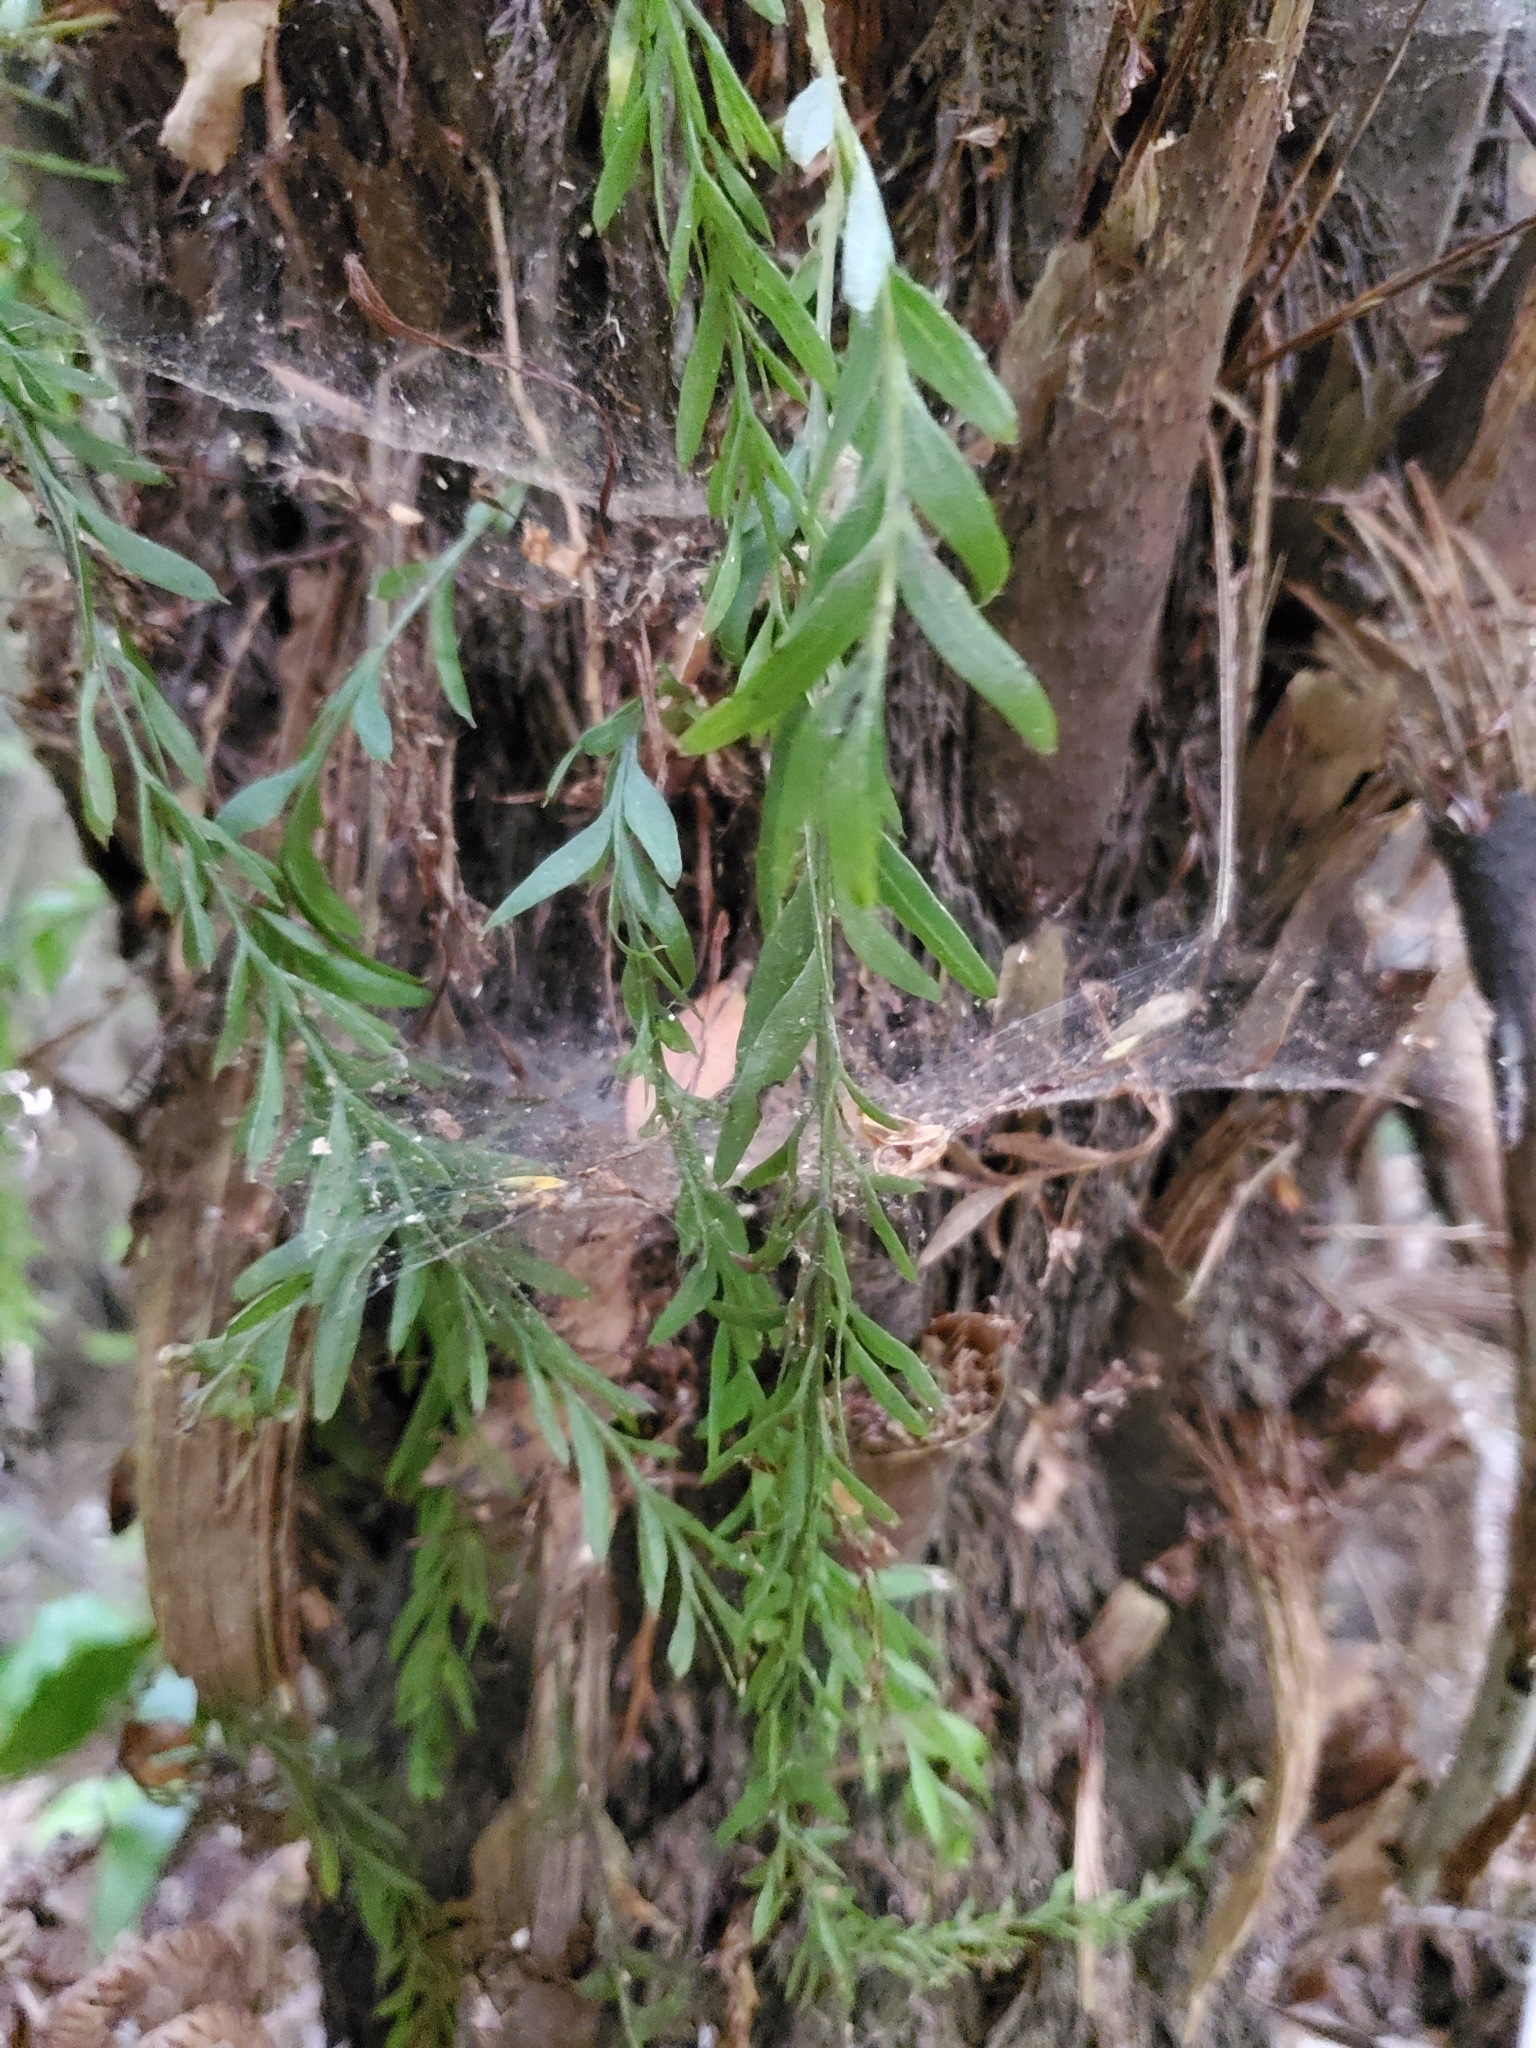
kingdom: Plantae
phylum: Tracheophyta
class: Polypodiopsida
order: Psilotales
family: Psilotaceae
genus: Tmesipteris
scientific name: Tmesipteris elongata
